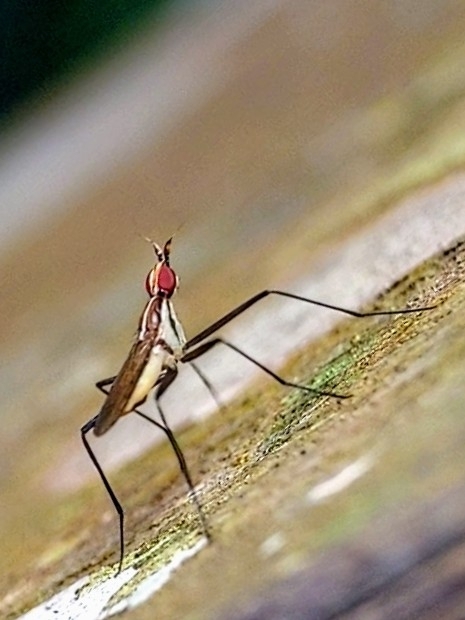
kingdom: Animalia
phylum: Arthropoda
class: Insecta
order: Diptera
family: Neriidae
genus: Telostylinus
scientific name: Telostylinus lineolatus
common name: Banana stalk fly
